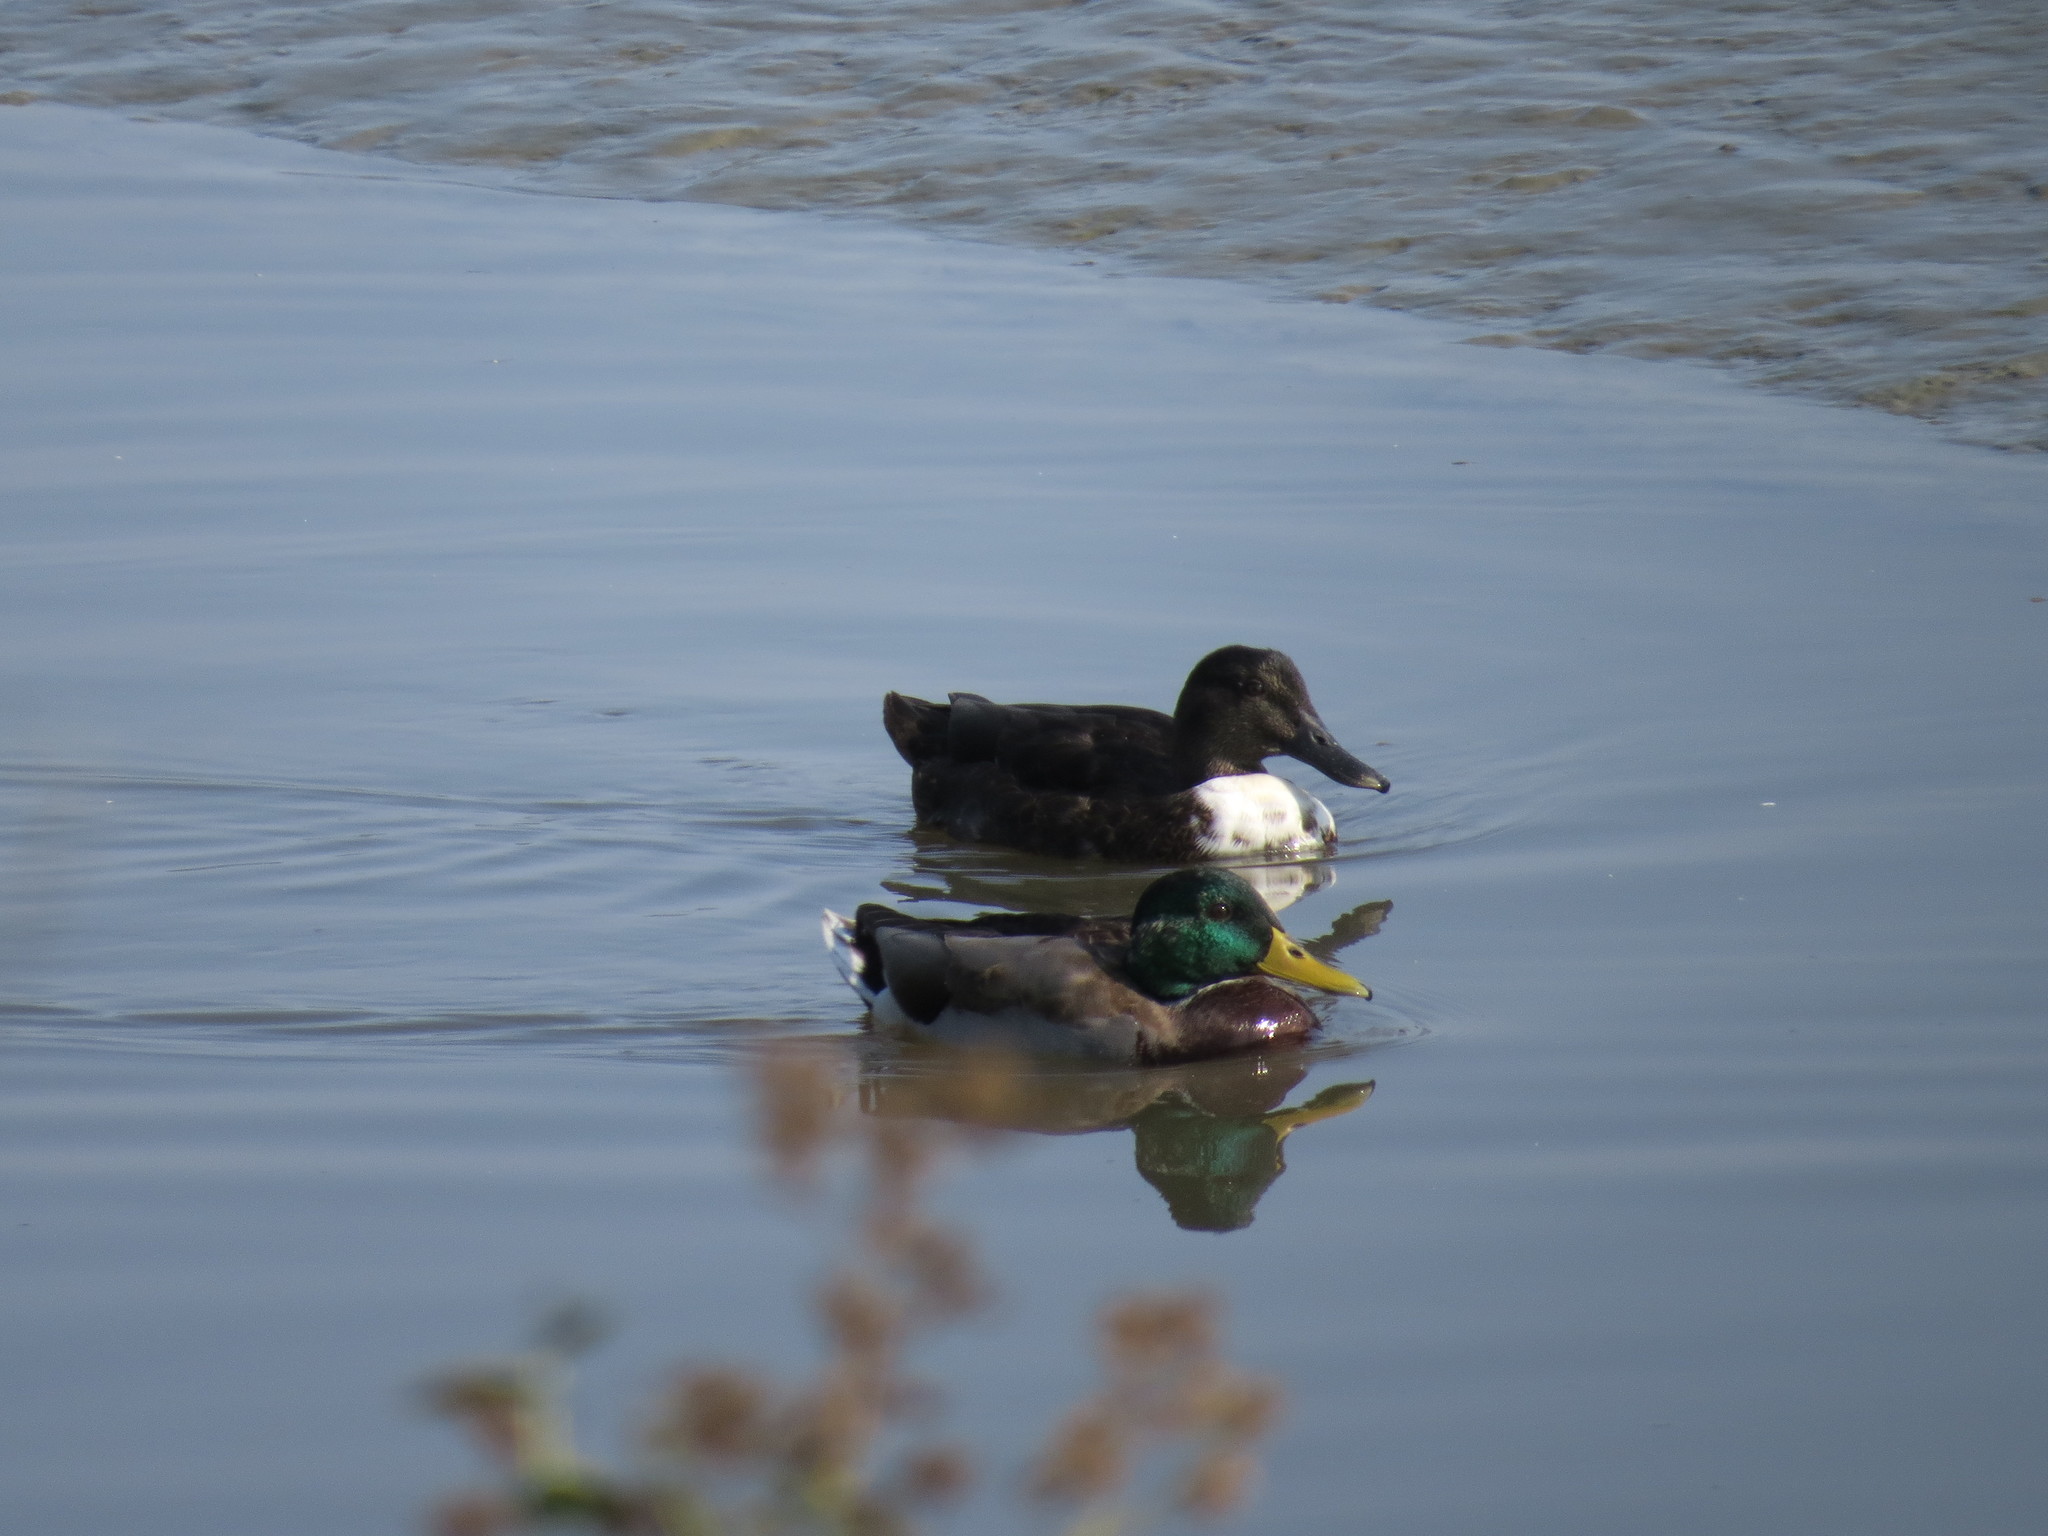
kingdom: Animalia
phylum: Chordata
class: Aves
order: Anseriformes
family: Anatidae
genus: Anas
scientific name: Anas platyrhynchos
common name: Mallard
